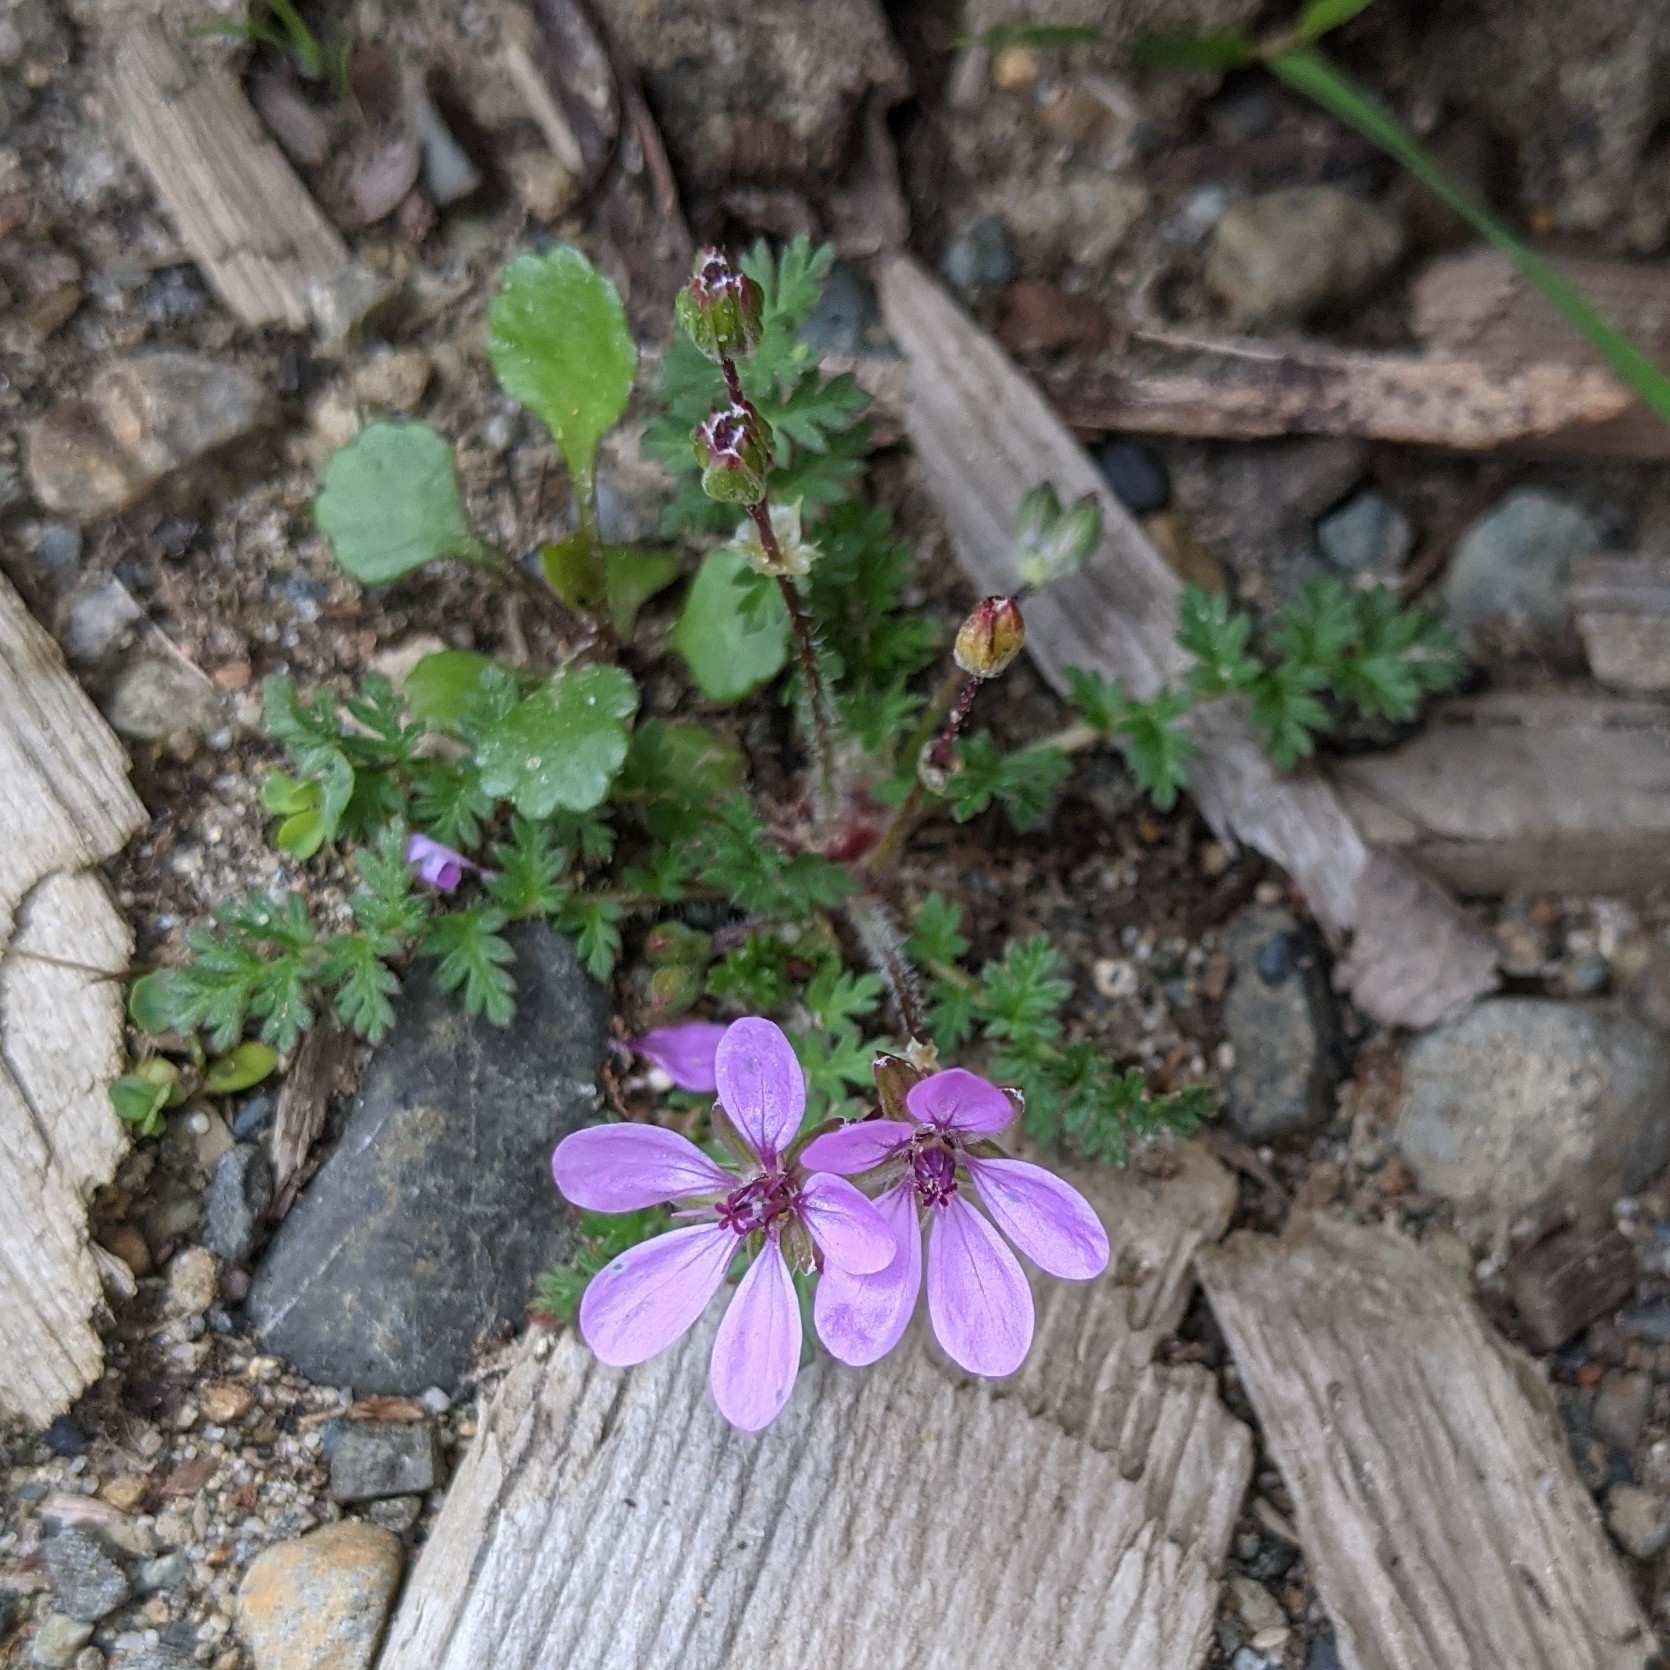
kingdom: Plantae
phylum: Tracheophyta
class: Magnoliopsida
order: Geraniales
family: Geraniaceae
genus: Erodium
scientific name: Erodium cicutarium
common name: Common stork's-bill
